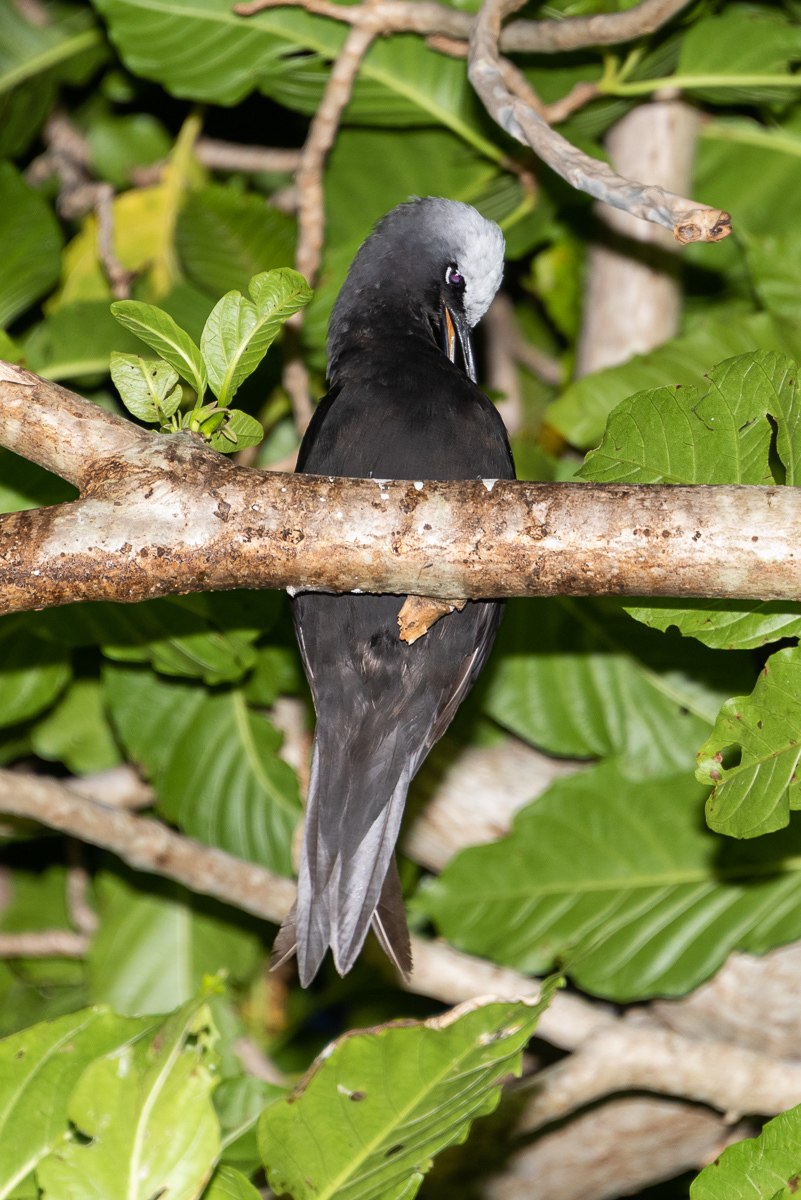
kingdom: Animalia
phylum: Chordata
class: Aves
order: Charadriiformes
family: Laridae
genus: Anous
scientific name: Anous minutus
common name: Black noddy
